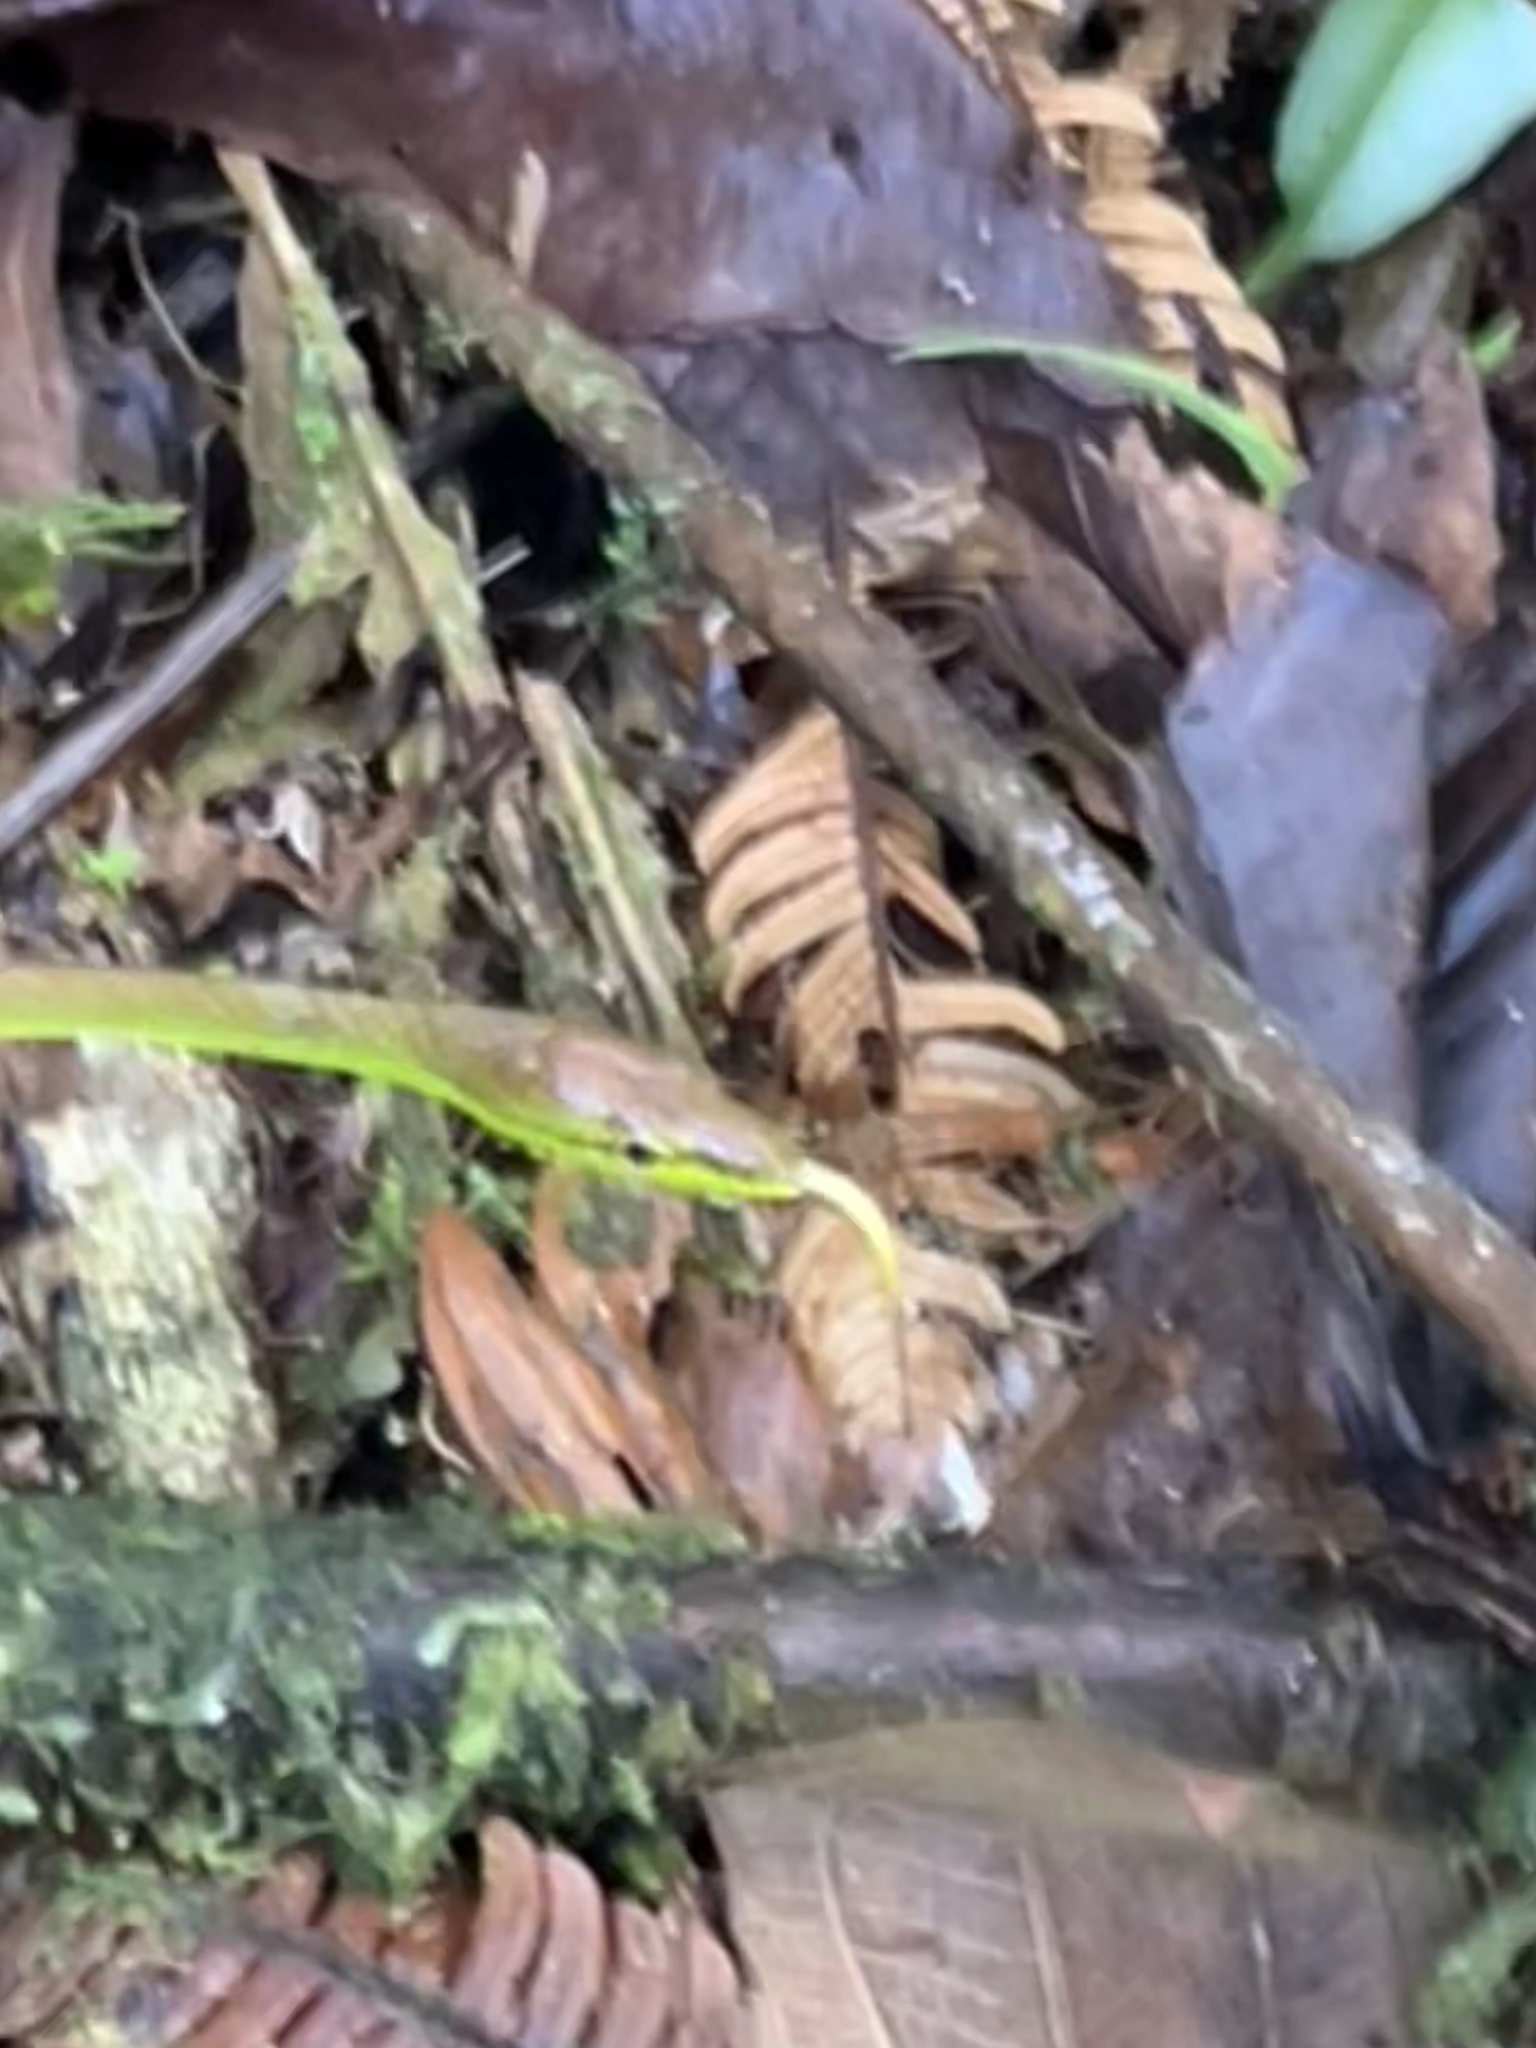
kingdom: Animalia
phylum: Chordata
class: Squamata
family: Colubridae
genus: Oxybelis
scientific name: Oxybelis brevirostris
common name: Cope's vine snake
